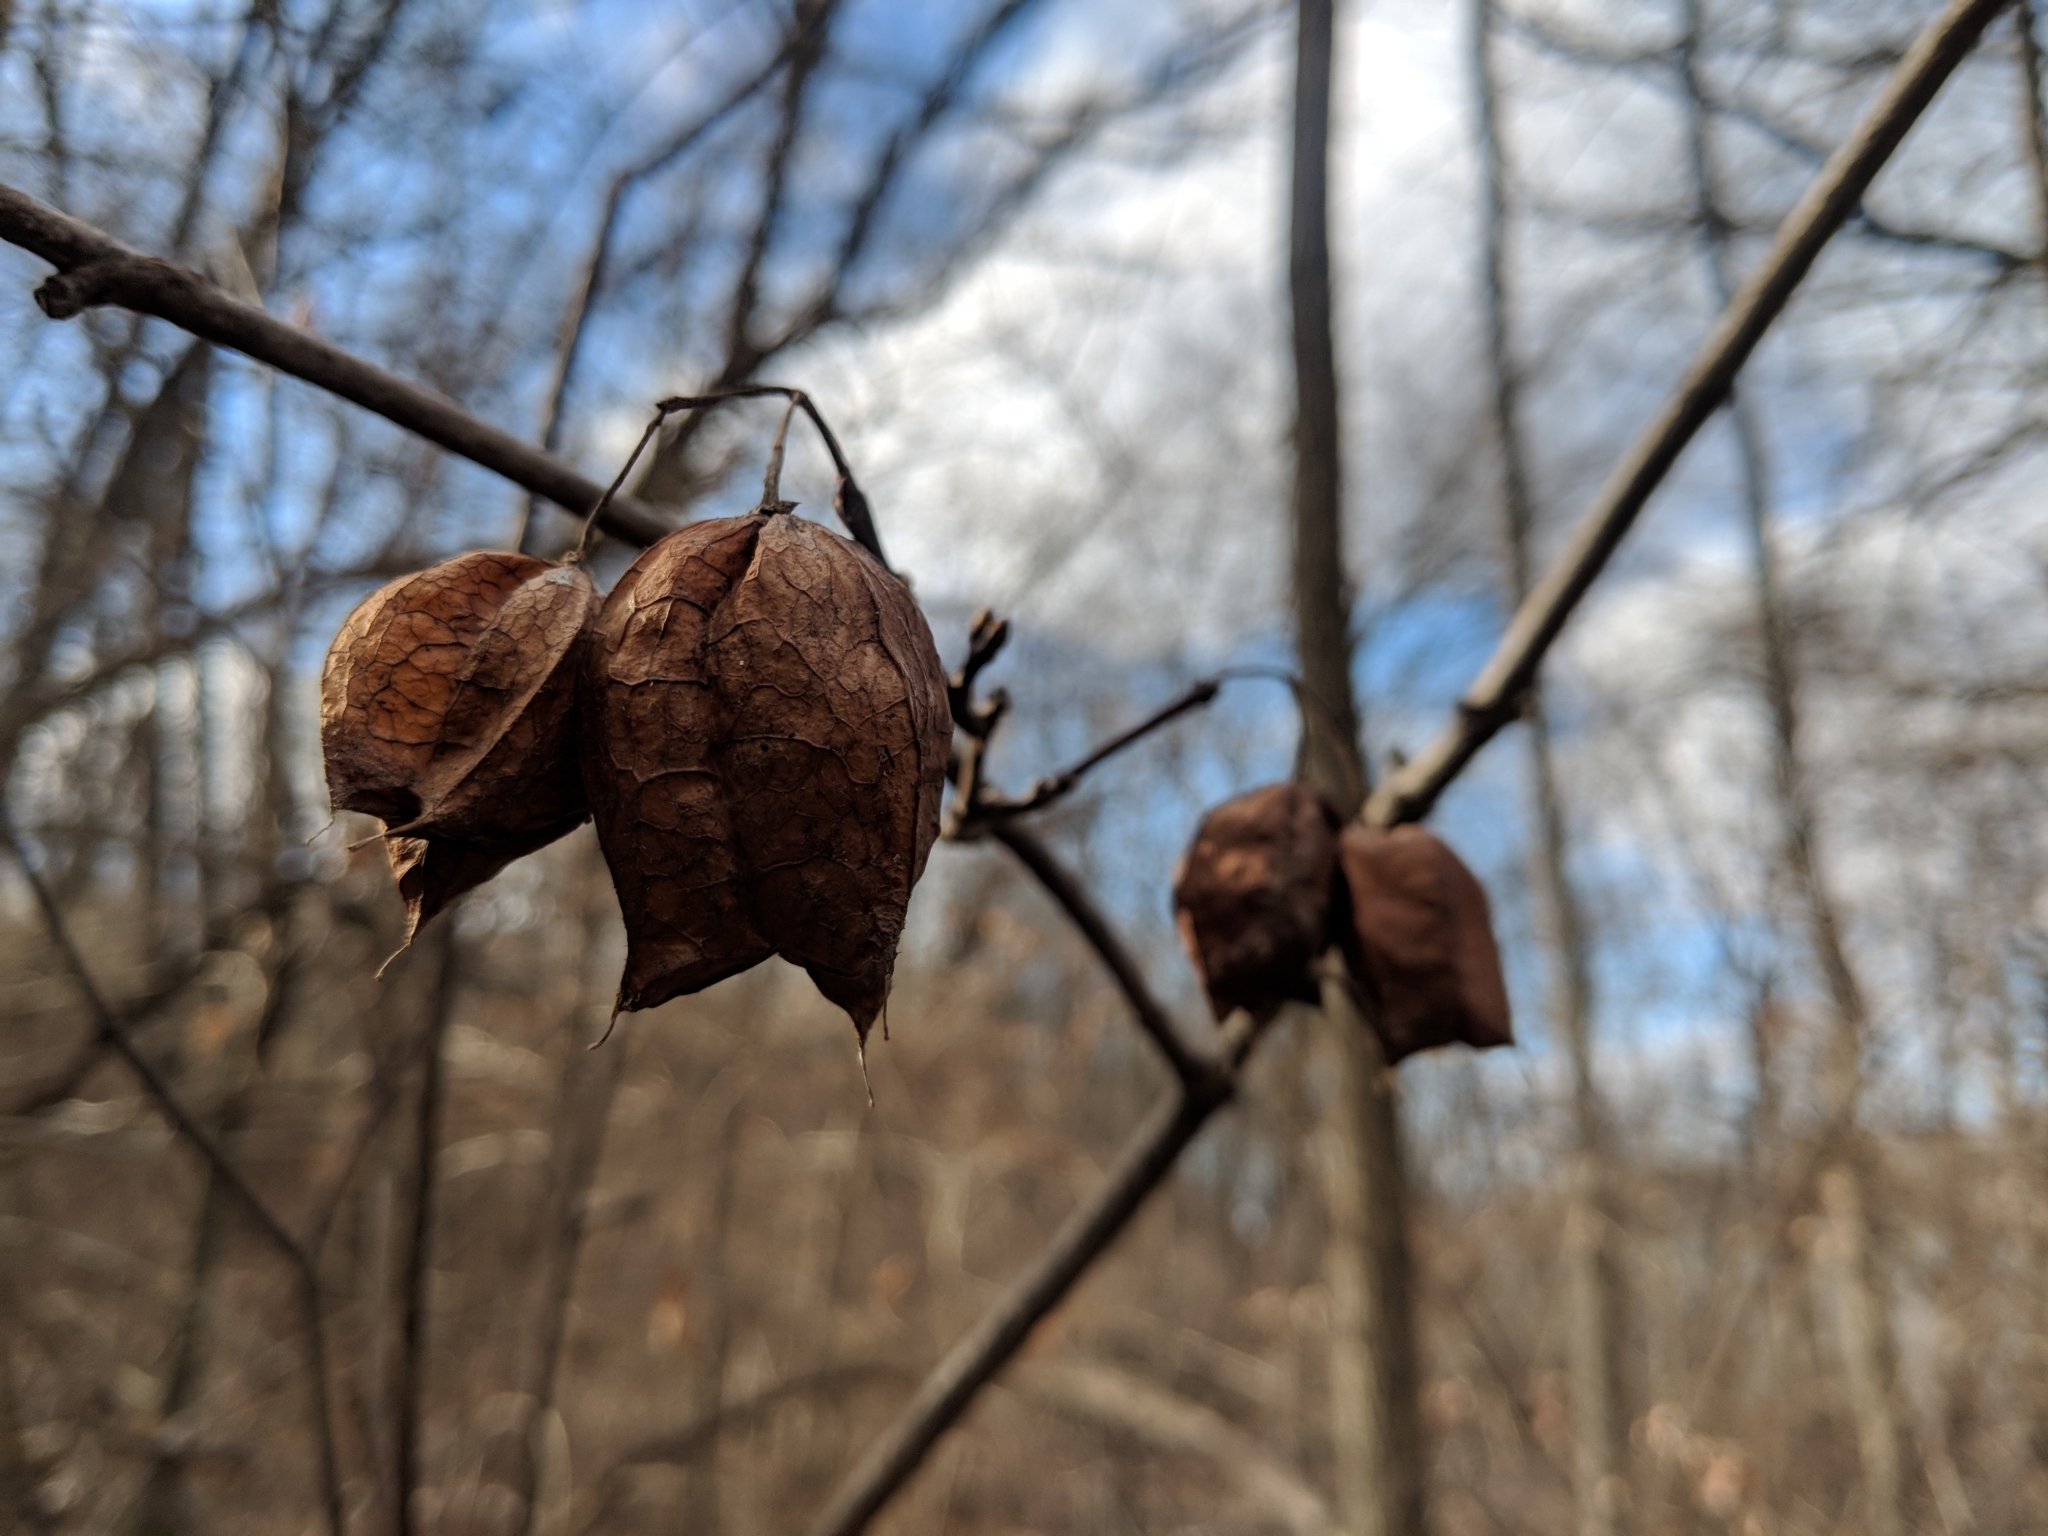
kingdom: Plantae
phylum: Tracheophyta
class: Magnoliopsida
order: Crossosomatales
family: Staphyleaceae
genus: Staphylea
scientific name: Staphylea trifolia
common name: American bladdernut
